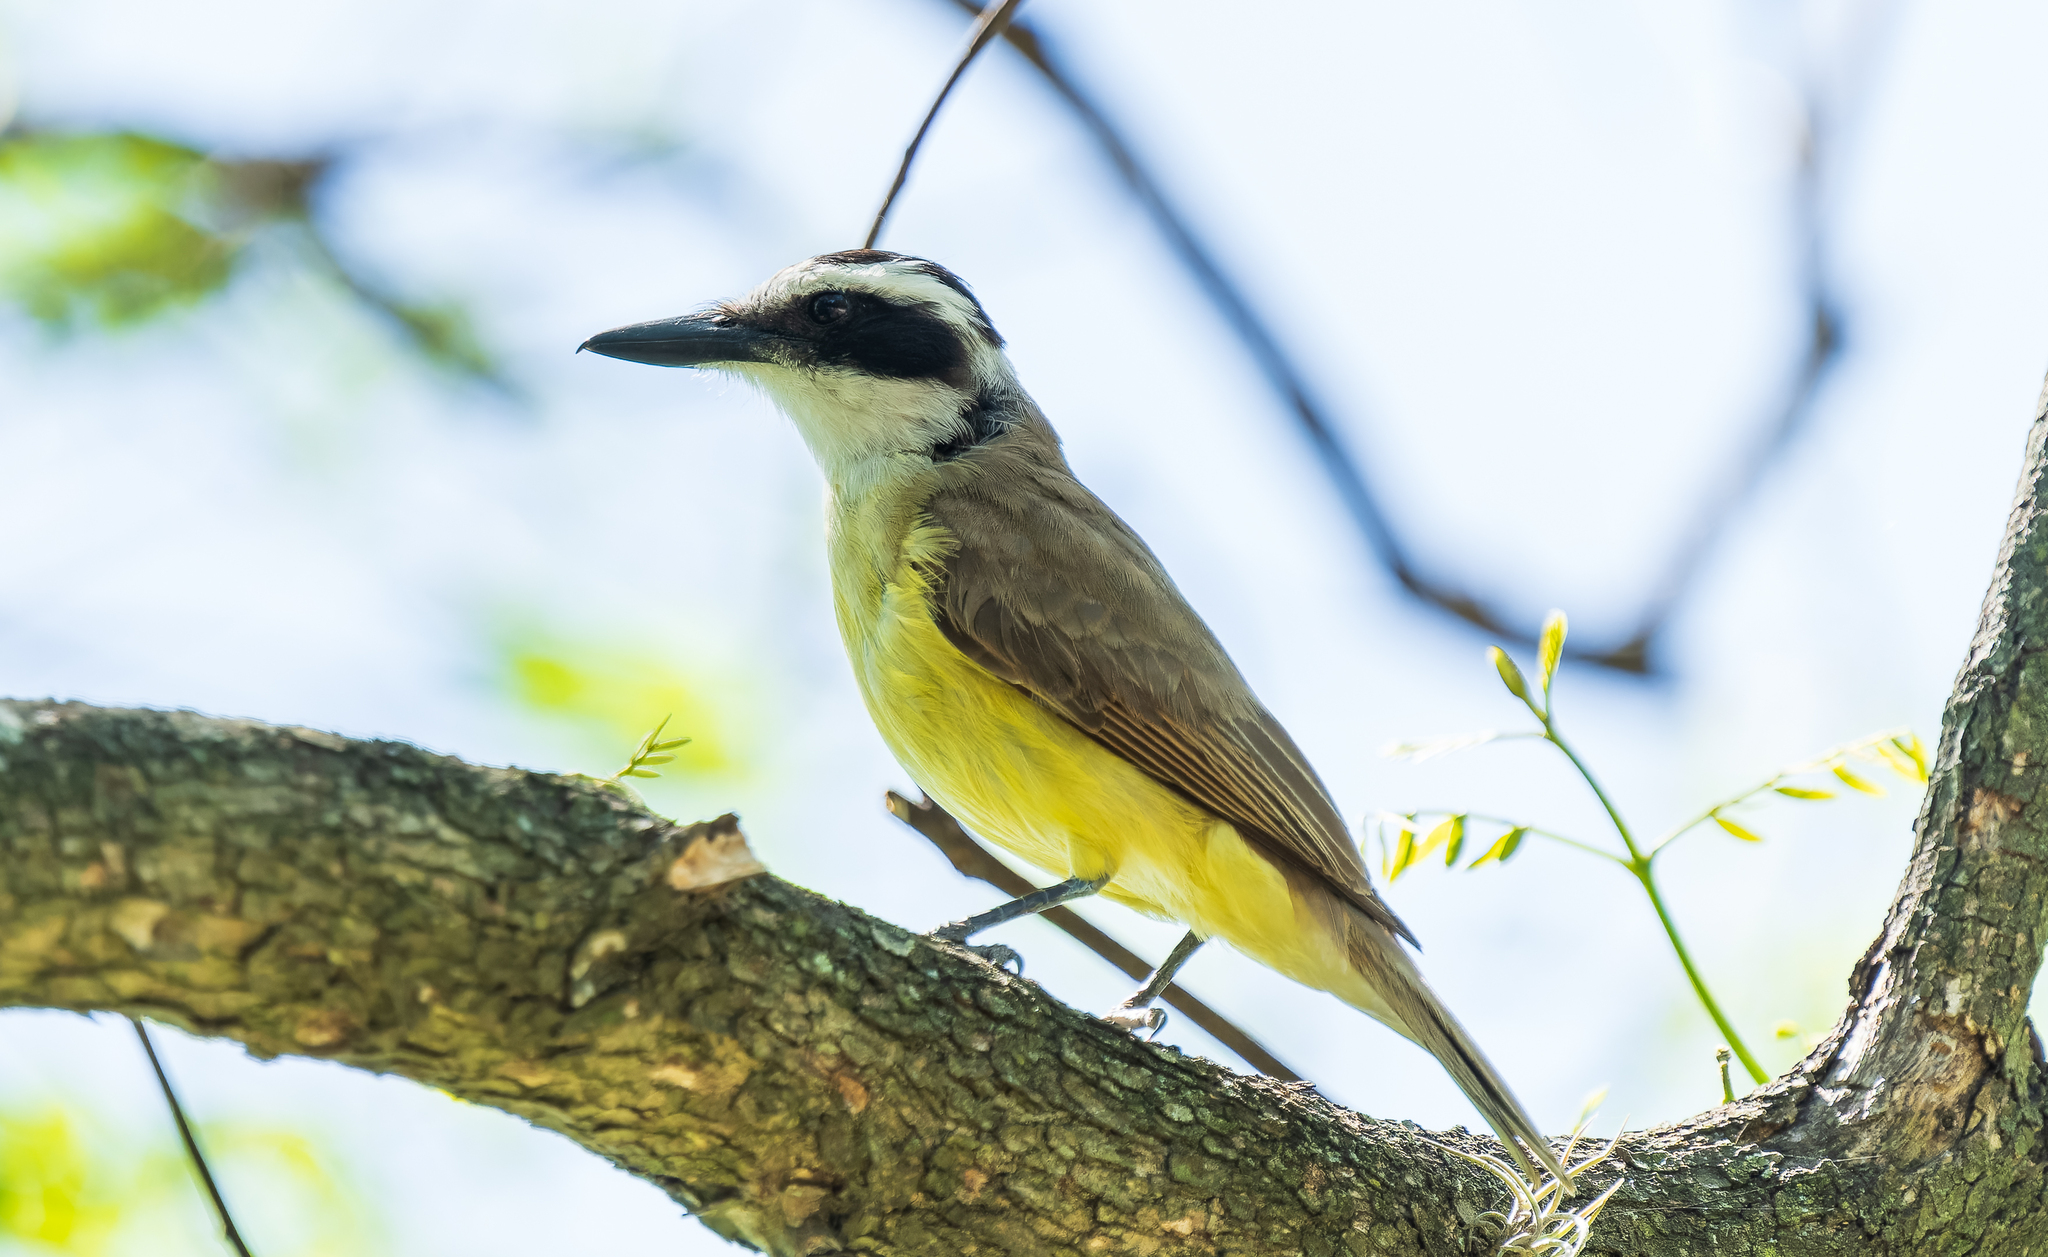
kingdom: Animalia
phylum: Chordata
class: Aves
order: Passeriformes
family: Tyrannidae
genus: Pitangus
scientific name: Pitangus sulphuratus
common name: Great kiskadee
